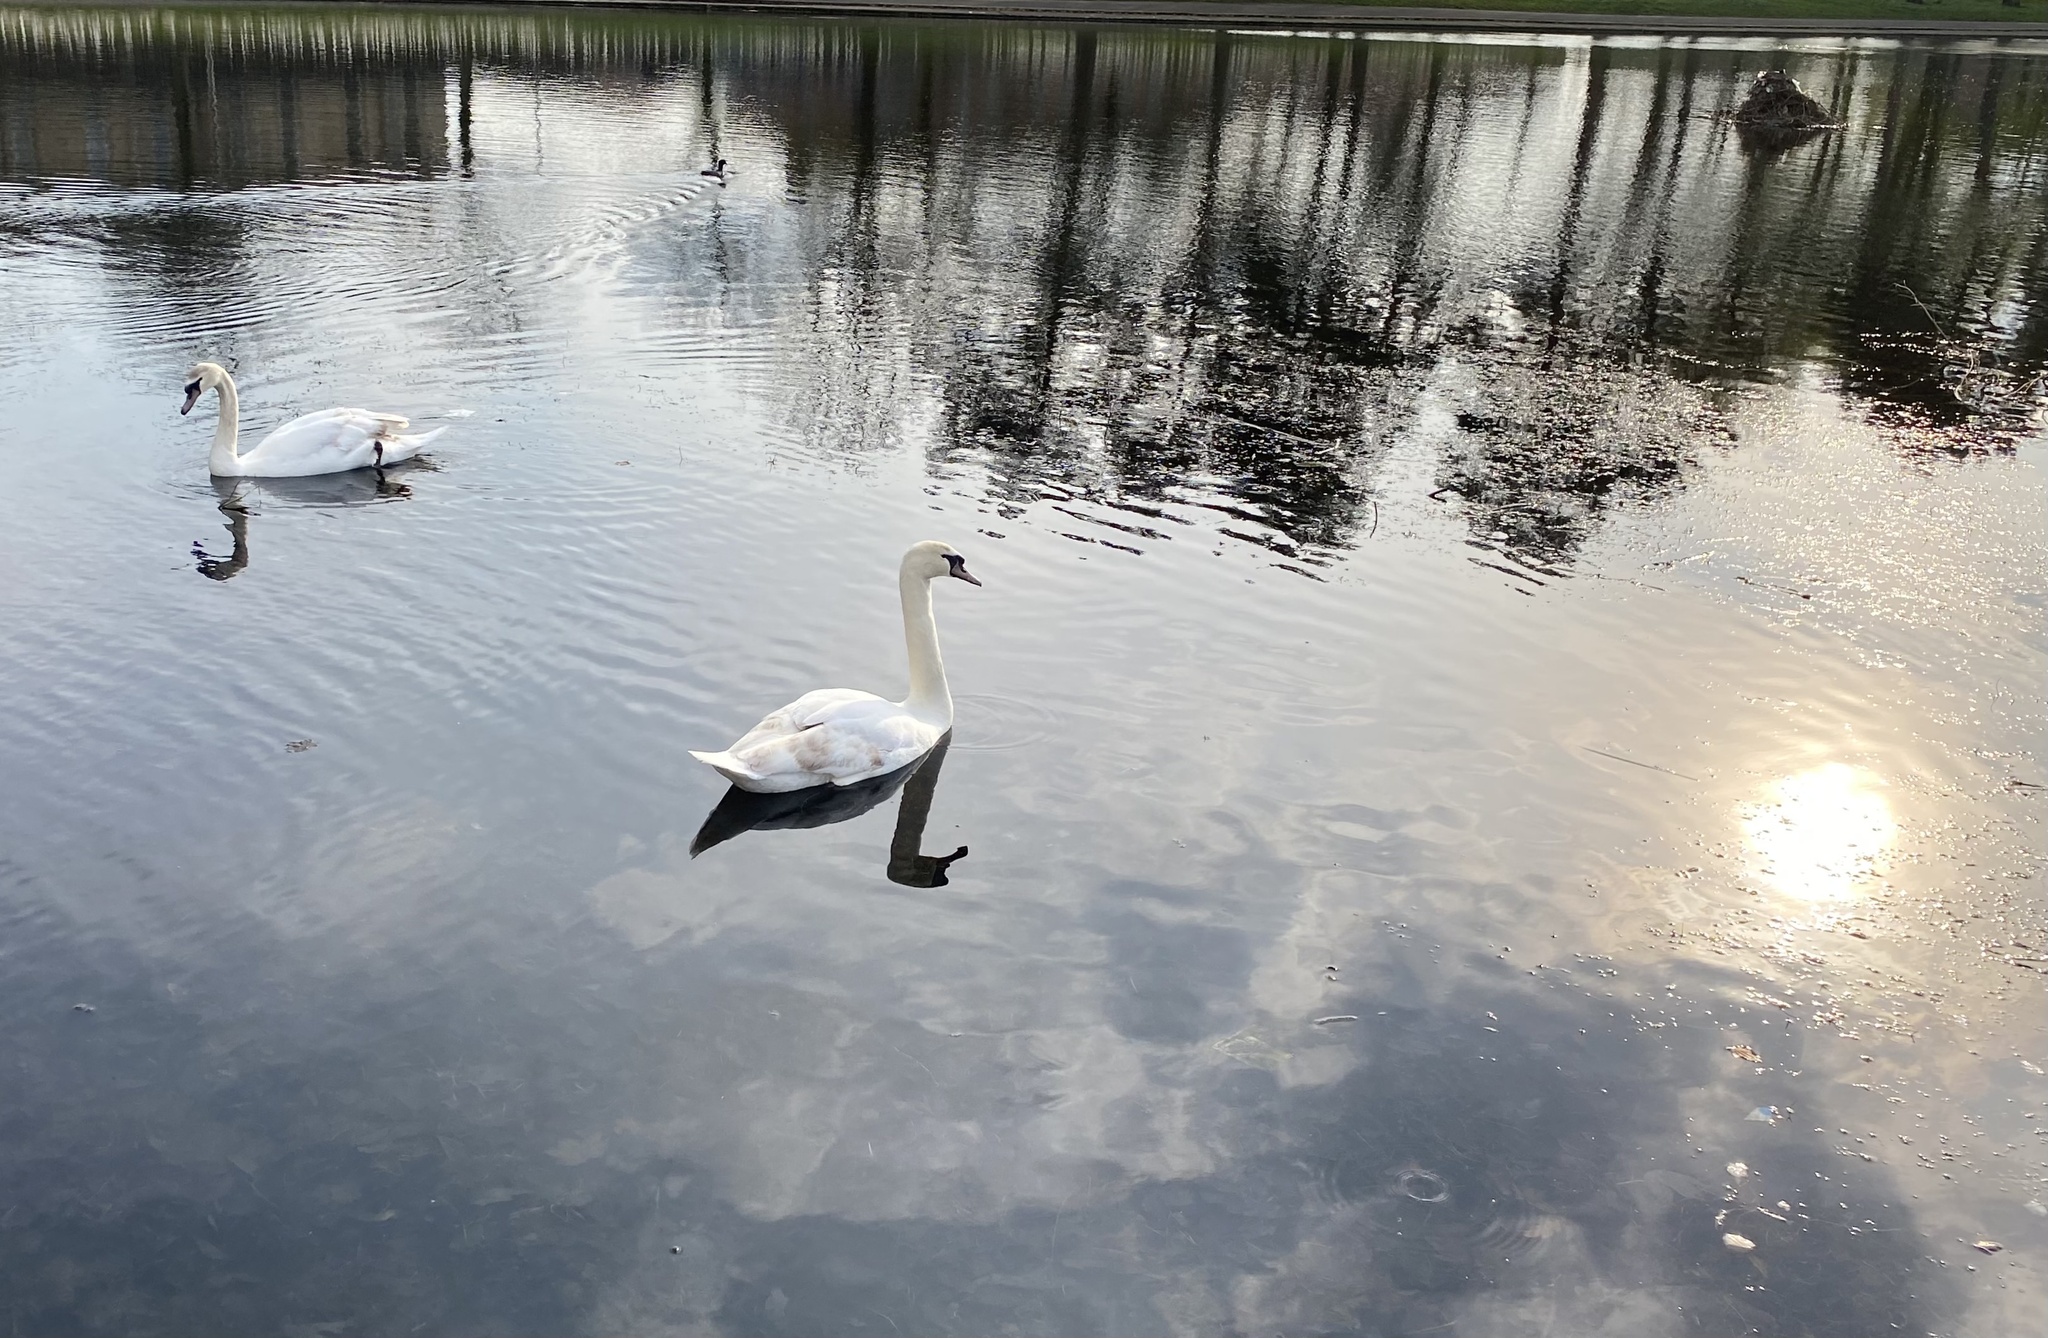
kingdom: Animalia
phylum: Chordata
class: Aves
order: Anseriformes
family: Anatidae
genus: Cygnus
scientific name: Cygnus olor
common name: Mute swan
